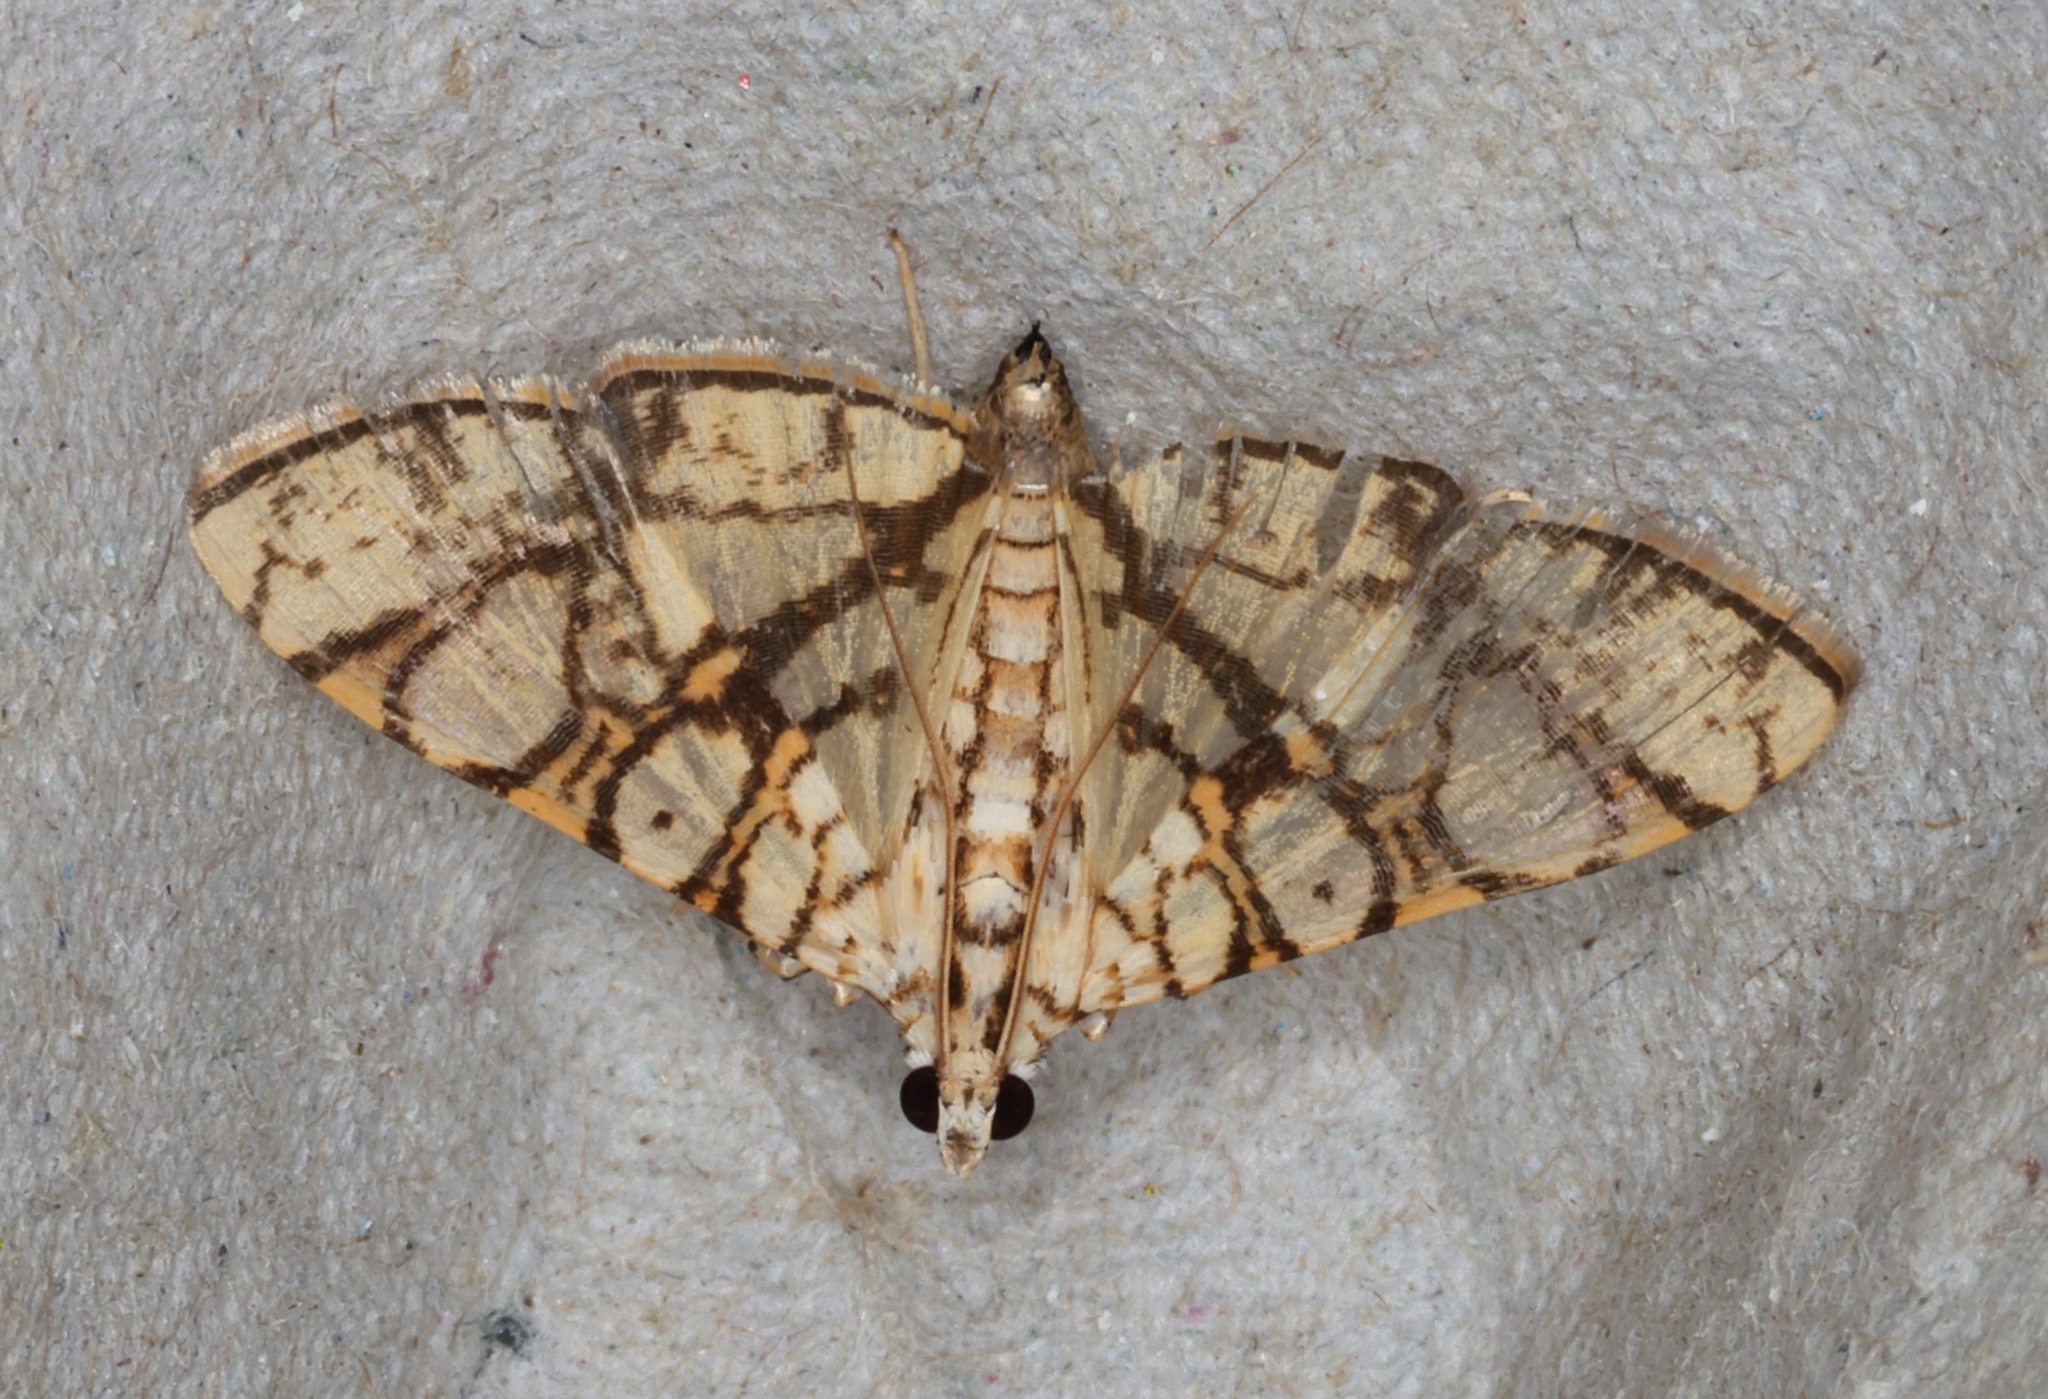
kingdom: Animalia
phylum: Arthropoda
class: Insecta
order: Lepidoptera
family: Crambidae
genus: Glyphodes
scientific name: Glyphodes caesalis
